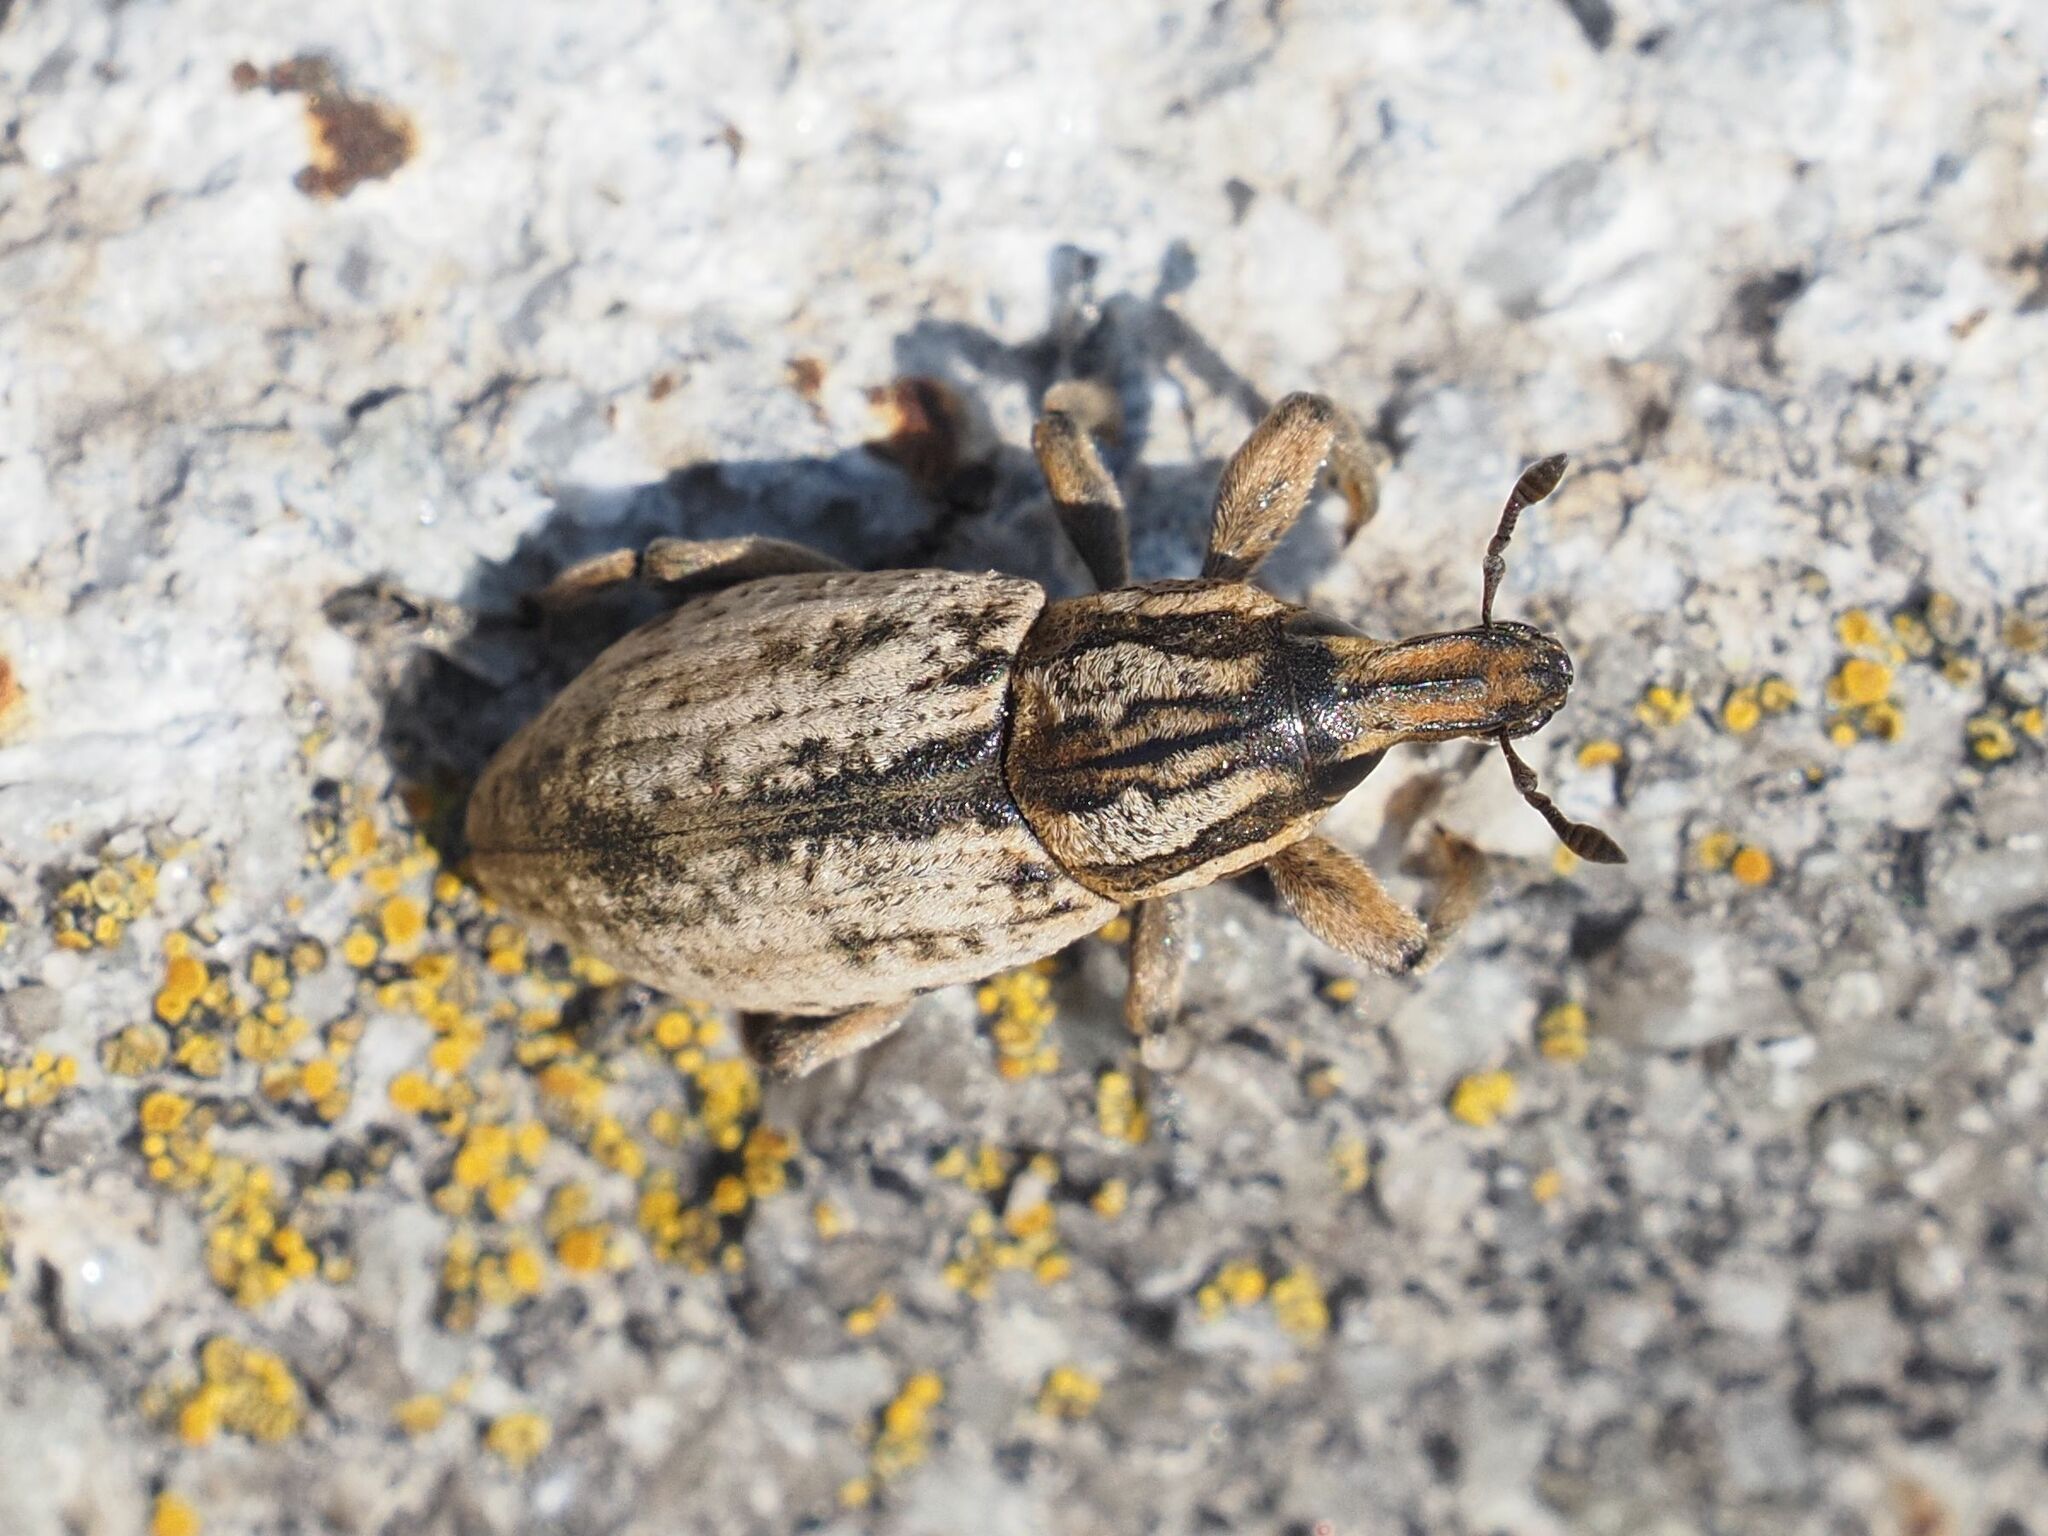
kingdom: Animalia
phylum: Arthropoda
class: Insecta
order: Coleoptera
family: Curculionidae
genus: Pseudocleonus
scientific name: Pseudocleonus cinereus
